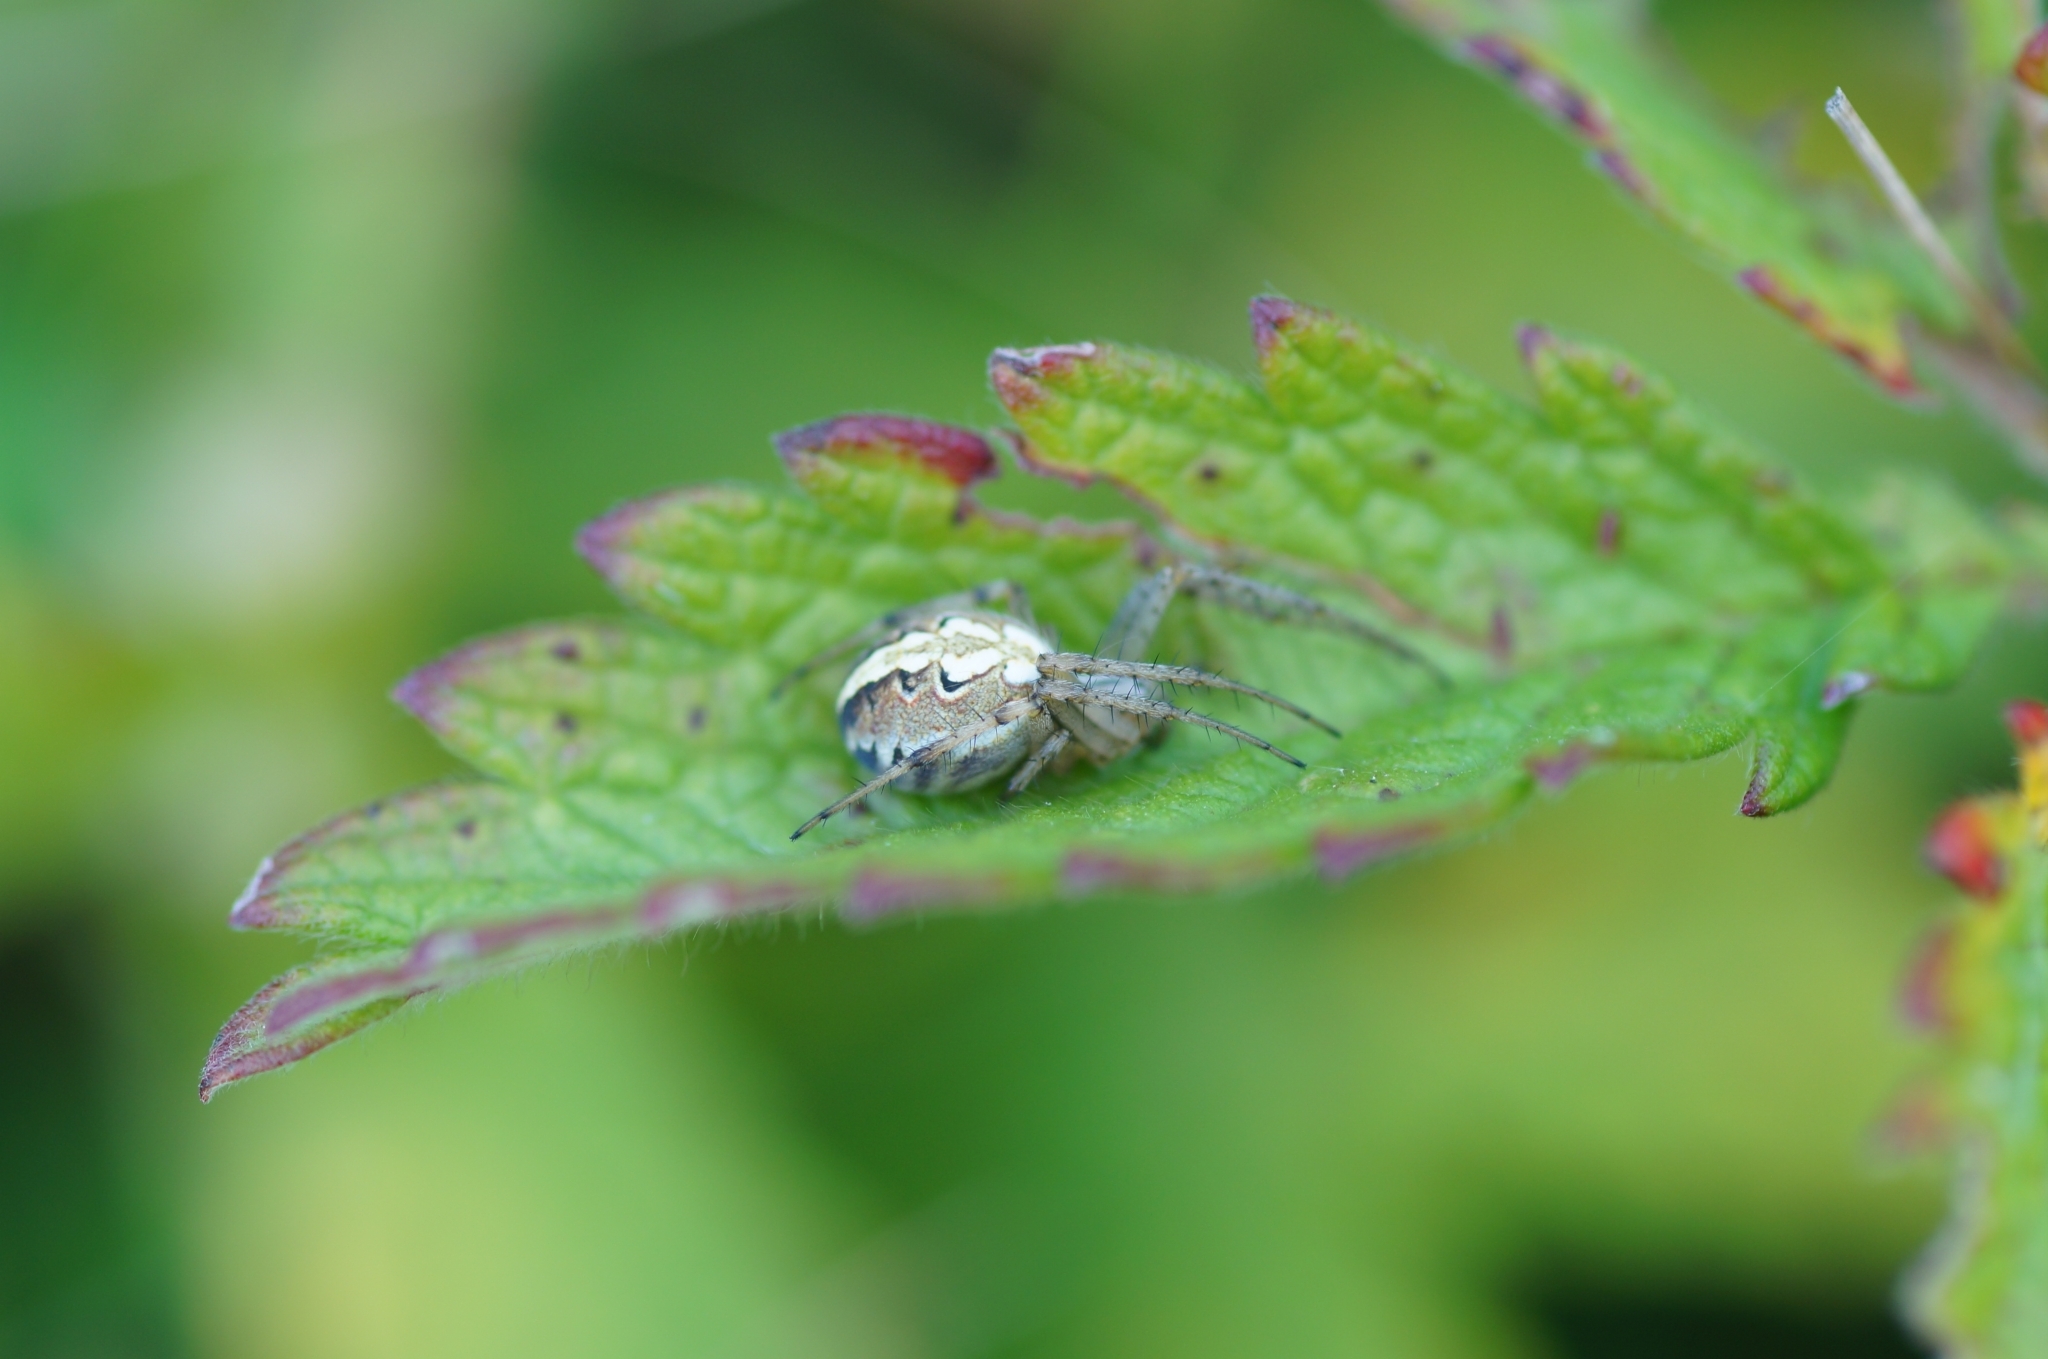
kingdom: Animalia
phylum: Arthropoda
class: Arachnida
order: Araneae
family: Araneidae
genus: Neoscona
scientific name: Neoscona adianta
